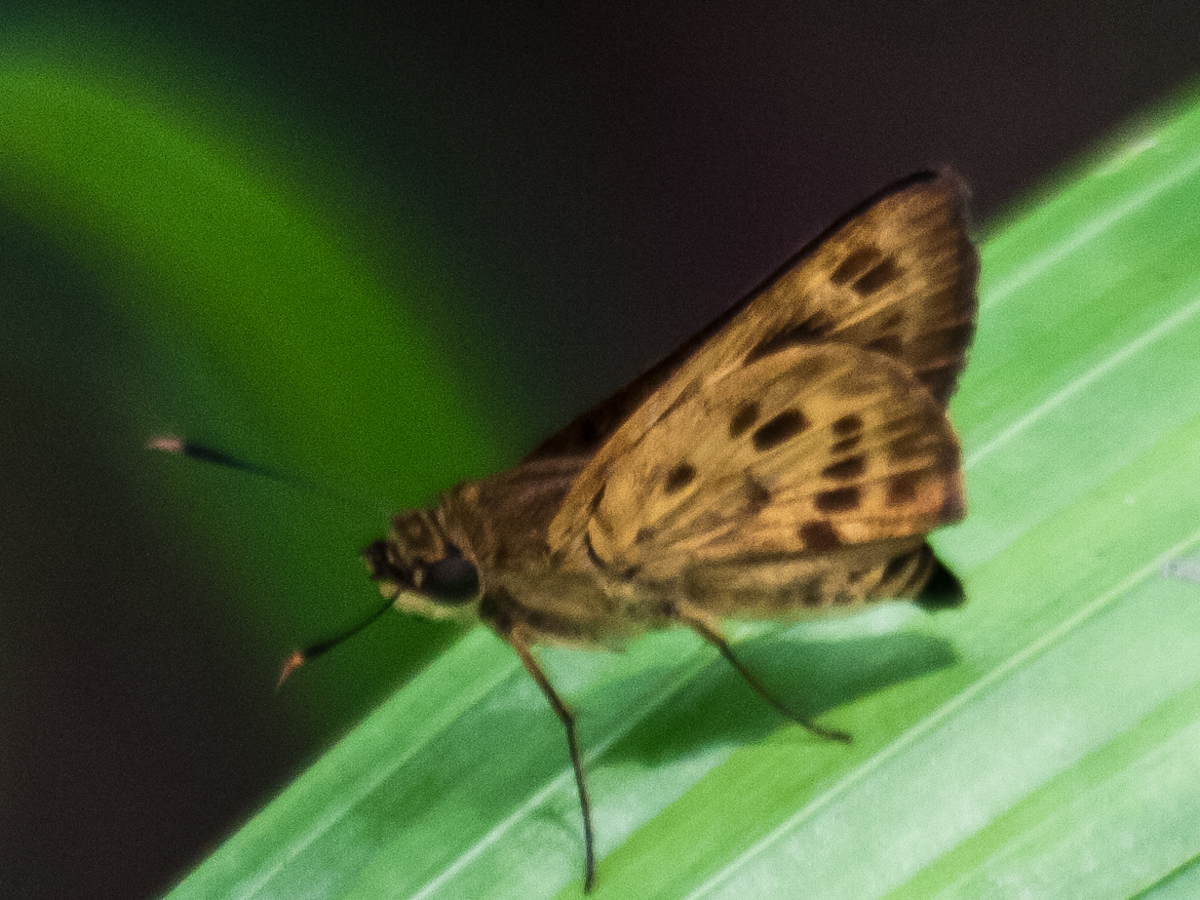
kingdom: Animalia
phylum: Arthropoda
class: Insecta
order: Lepidoptera
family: Hesperiidae
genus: Thoressa
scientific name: Thoressa masoni
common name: Golden ace
